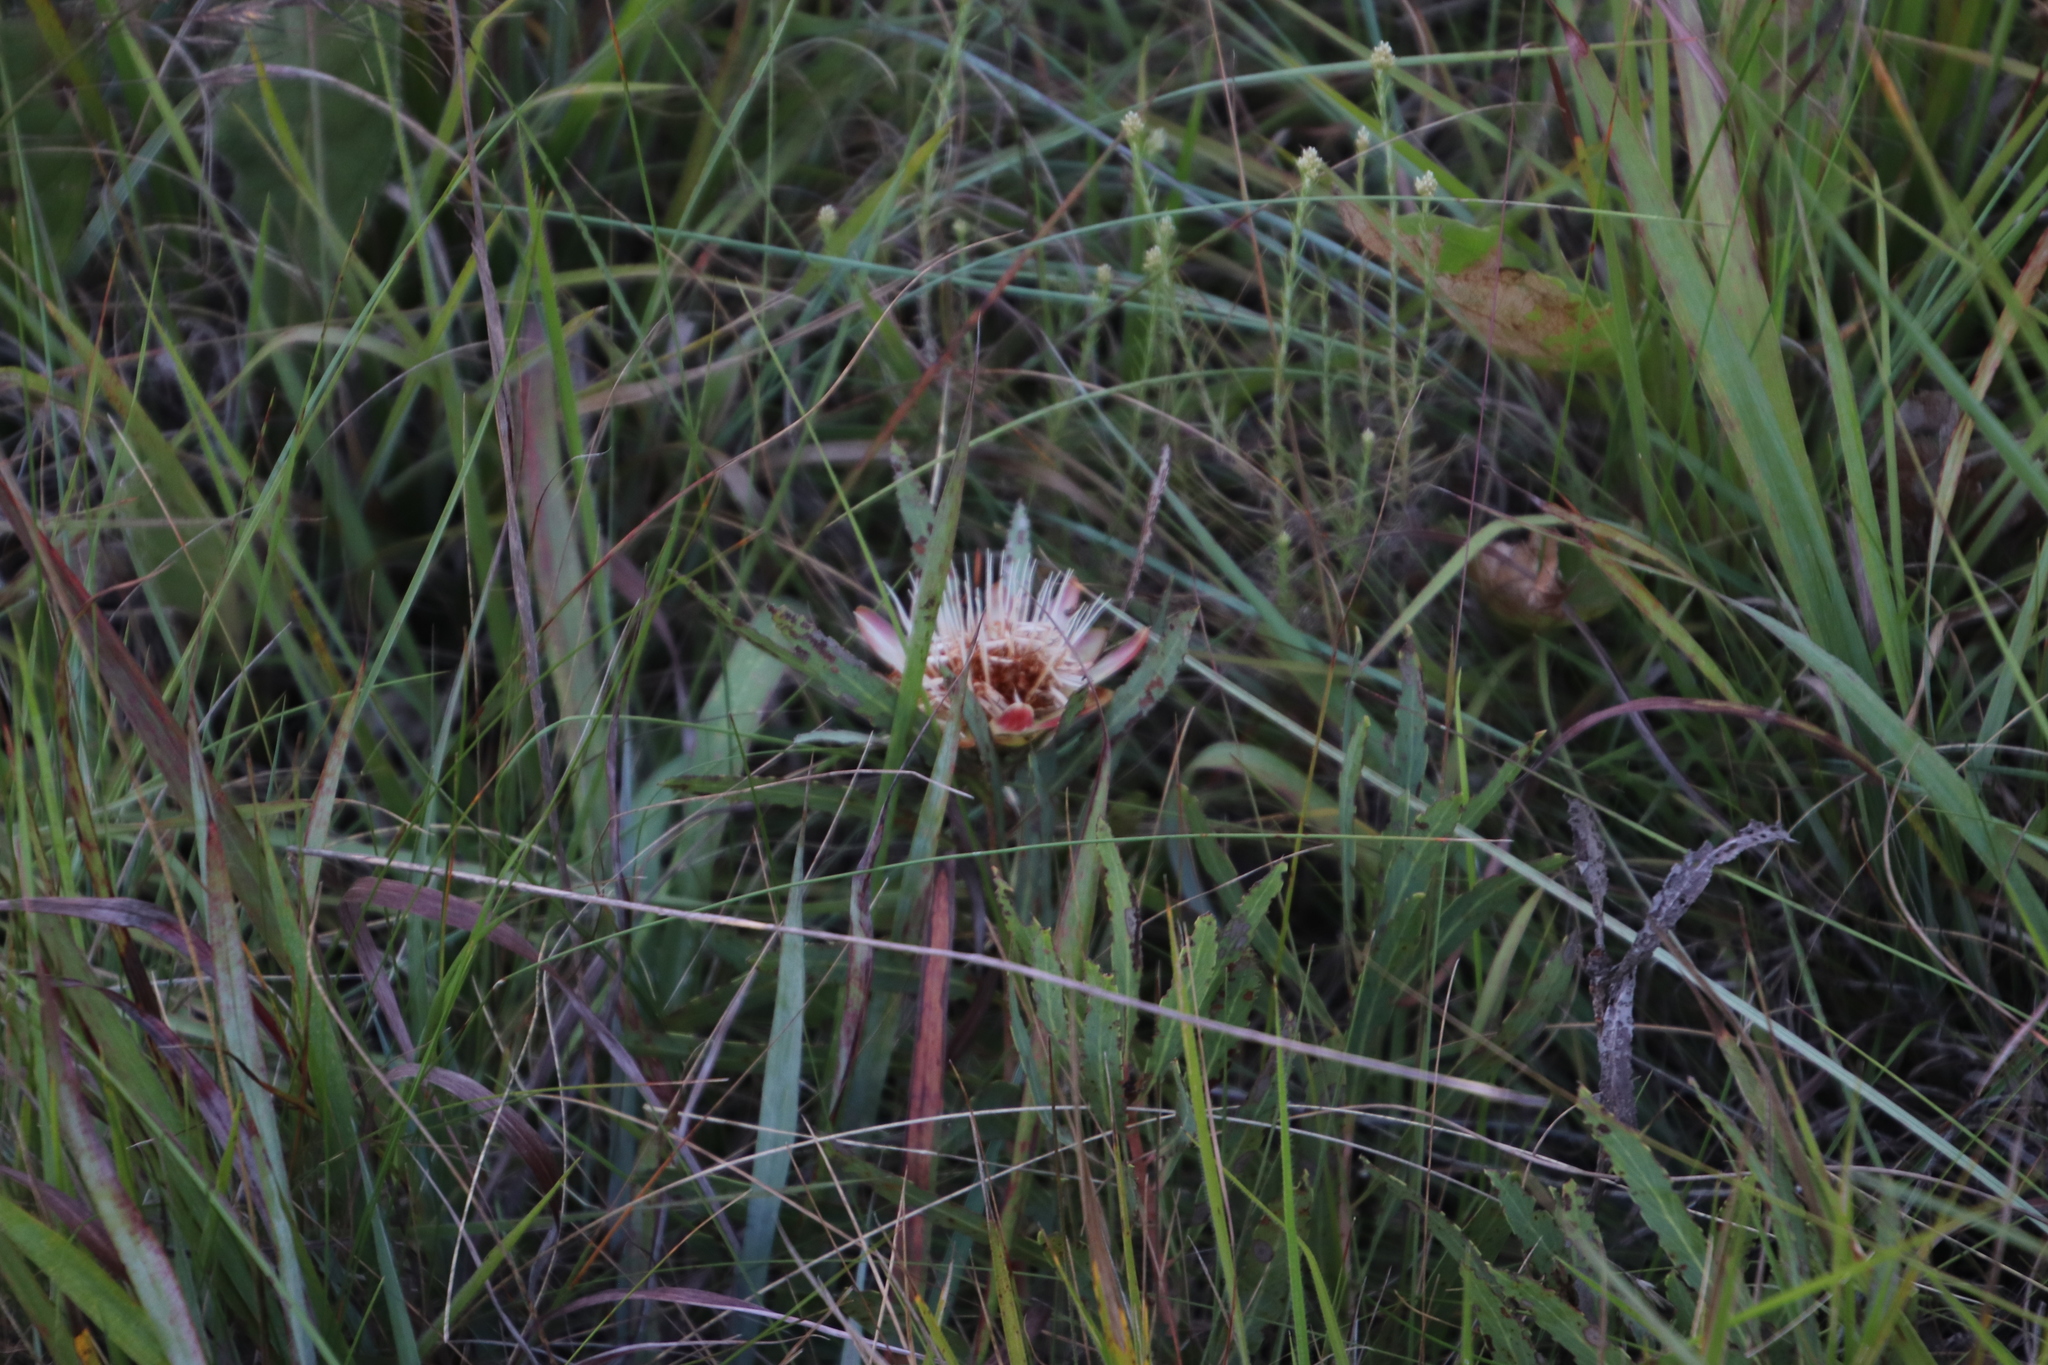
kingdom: Plantae
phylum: Tracheophyta
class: Magnoliopsida
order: Proteales
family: Proteaceae
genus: Protea
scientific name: Protea simplex
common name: Dwarf grassveld sugarbush
